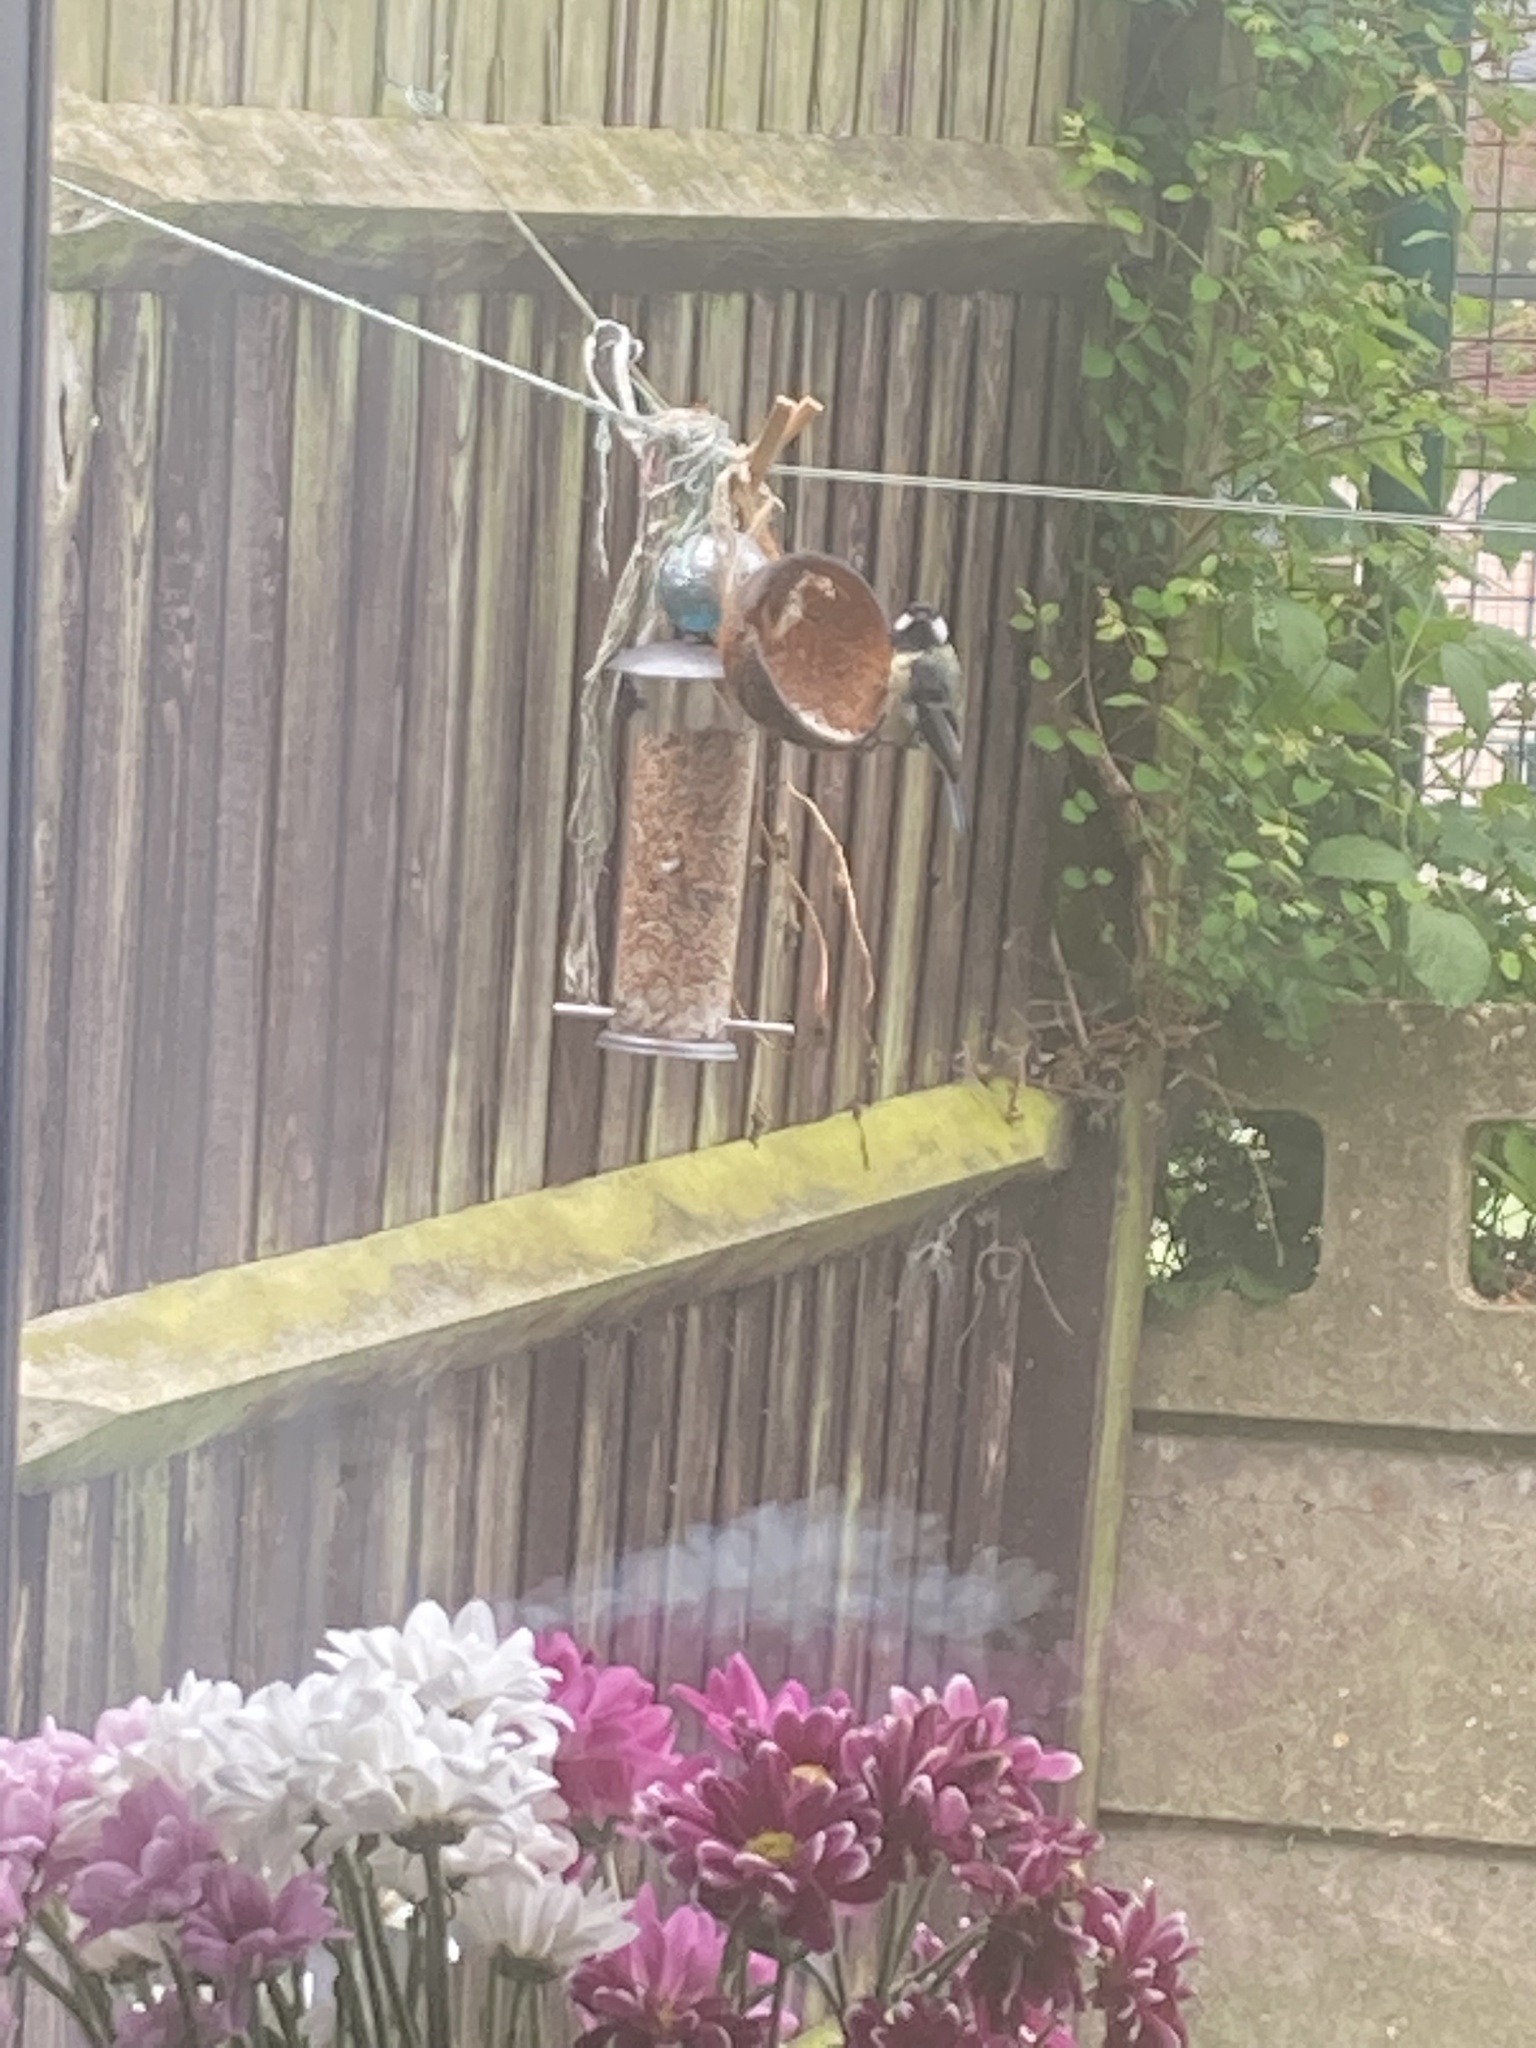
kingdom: Animalia
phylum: Chordata
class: Aves
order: Passeriformes
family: Paridae
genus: Parus
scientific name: Parus major
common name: Great tit
